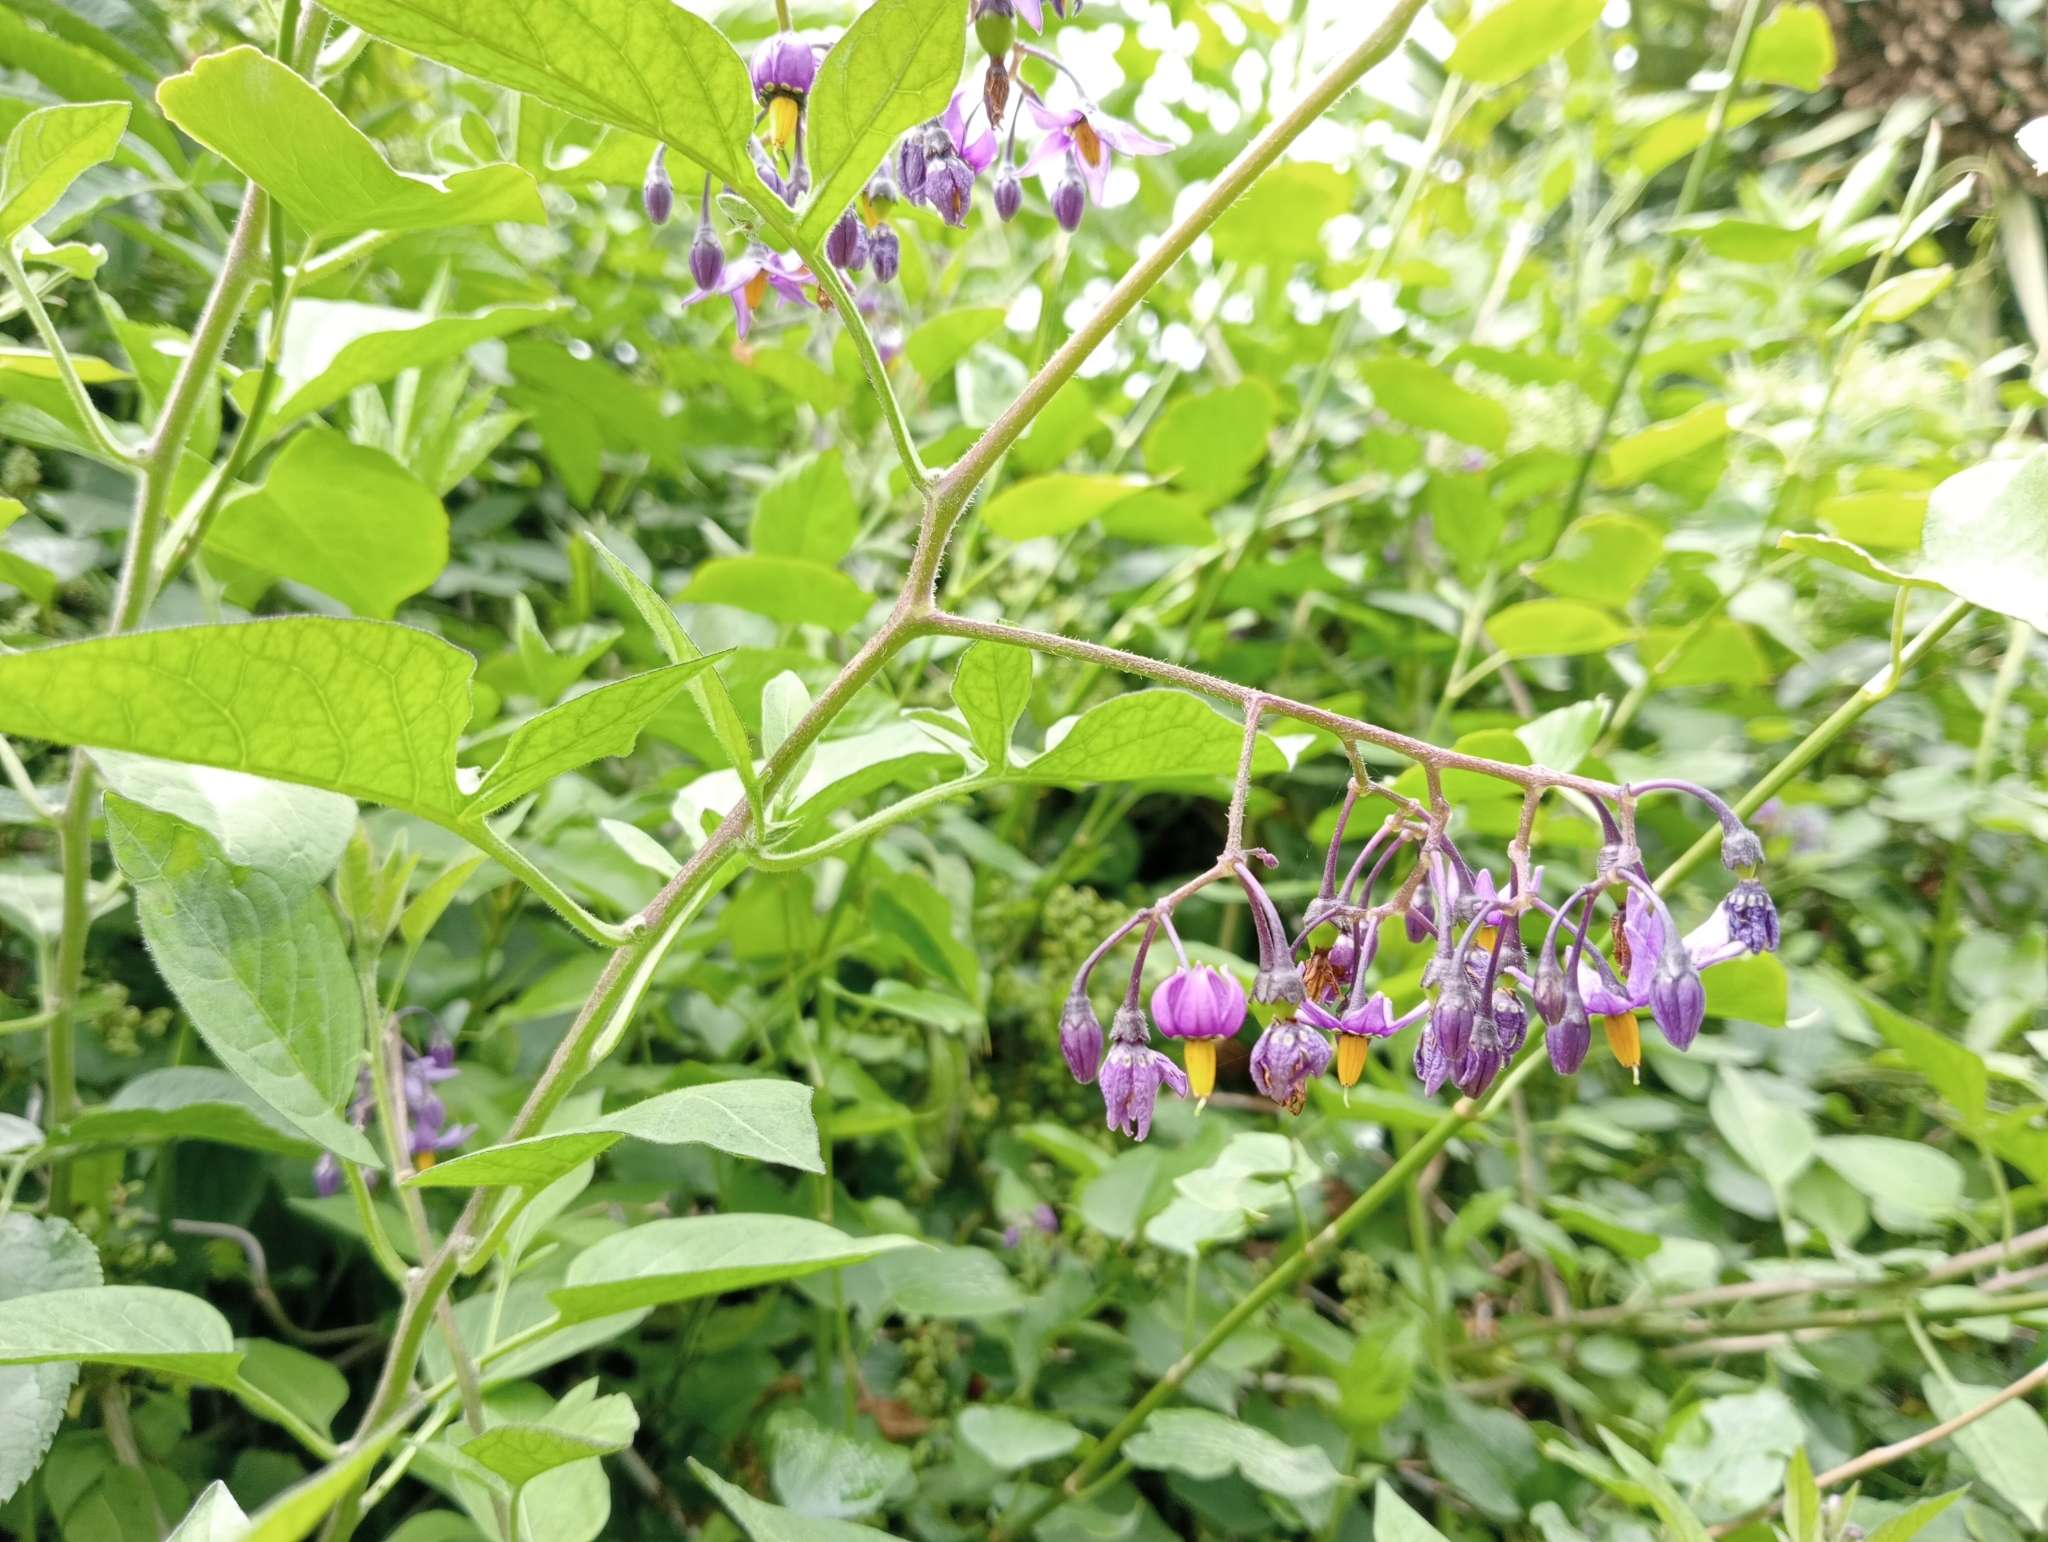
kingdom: Plantae
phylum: Tracheophyta
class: Magnoliopsida
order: Solanales
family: Solanaceae
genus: Solanum
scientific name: Solanum dulcamara
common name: Climbing nightshade
